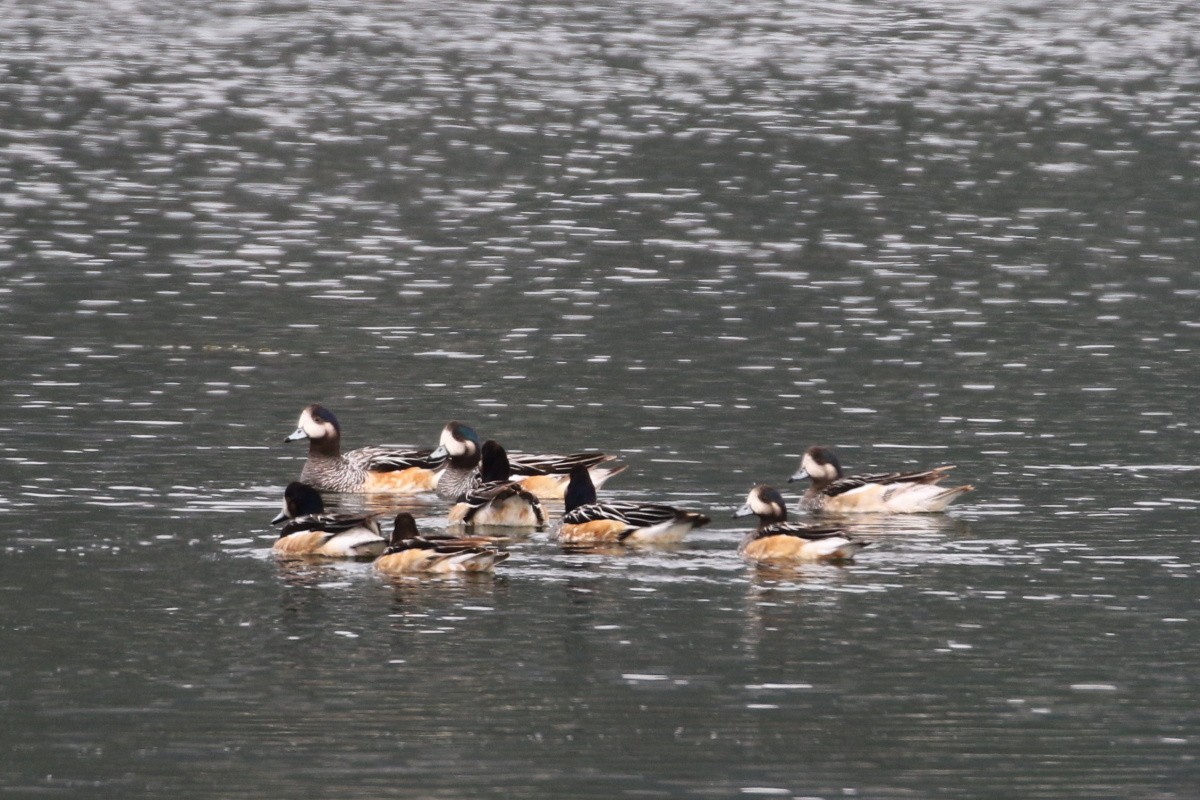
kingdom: Animalia
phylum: Chordata
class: Aves
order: Anseriformes
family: Anatidae
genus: Mareca
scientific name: Mareca sibilatrix
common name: Chiloe wigeon
